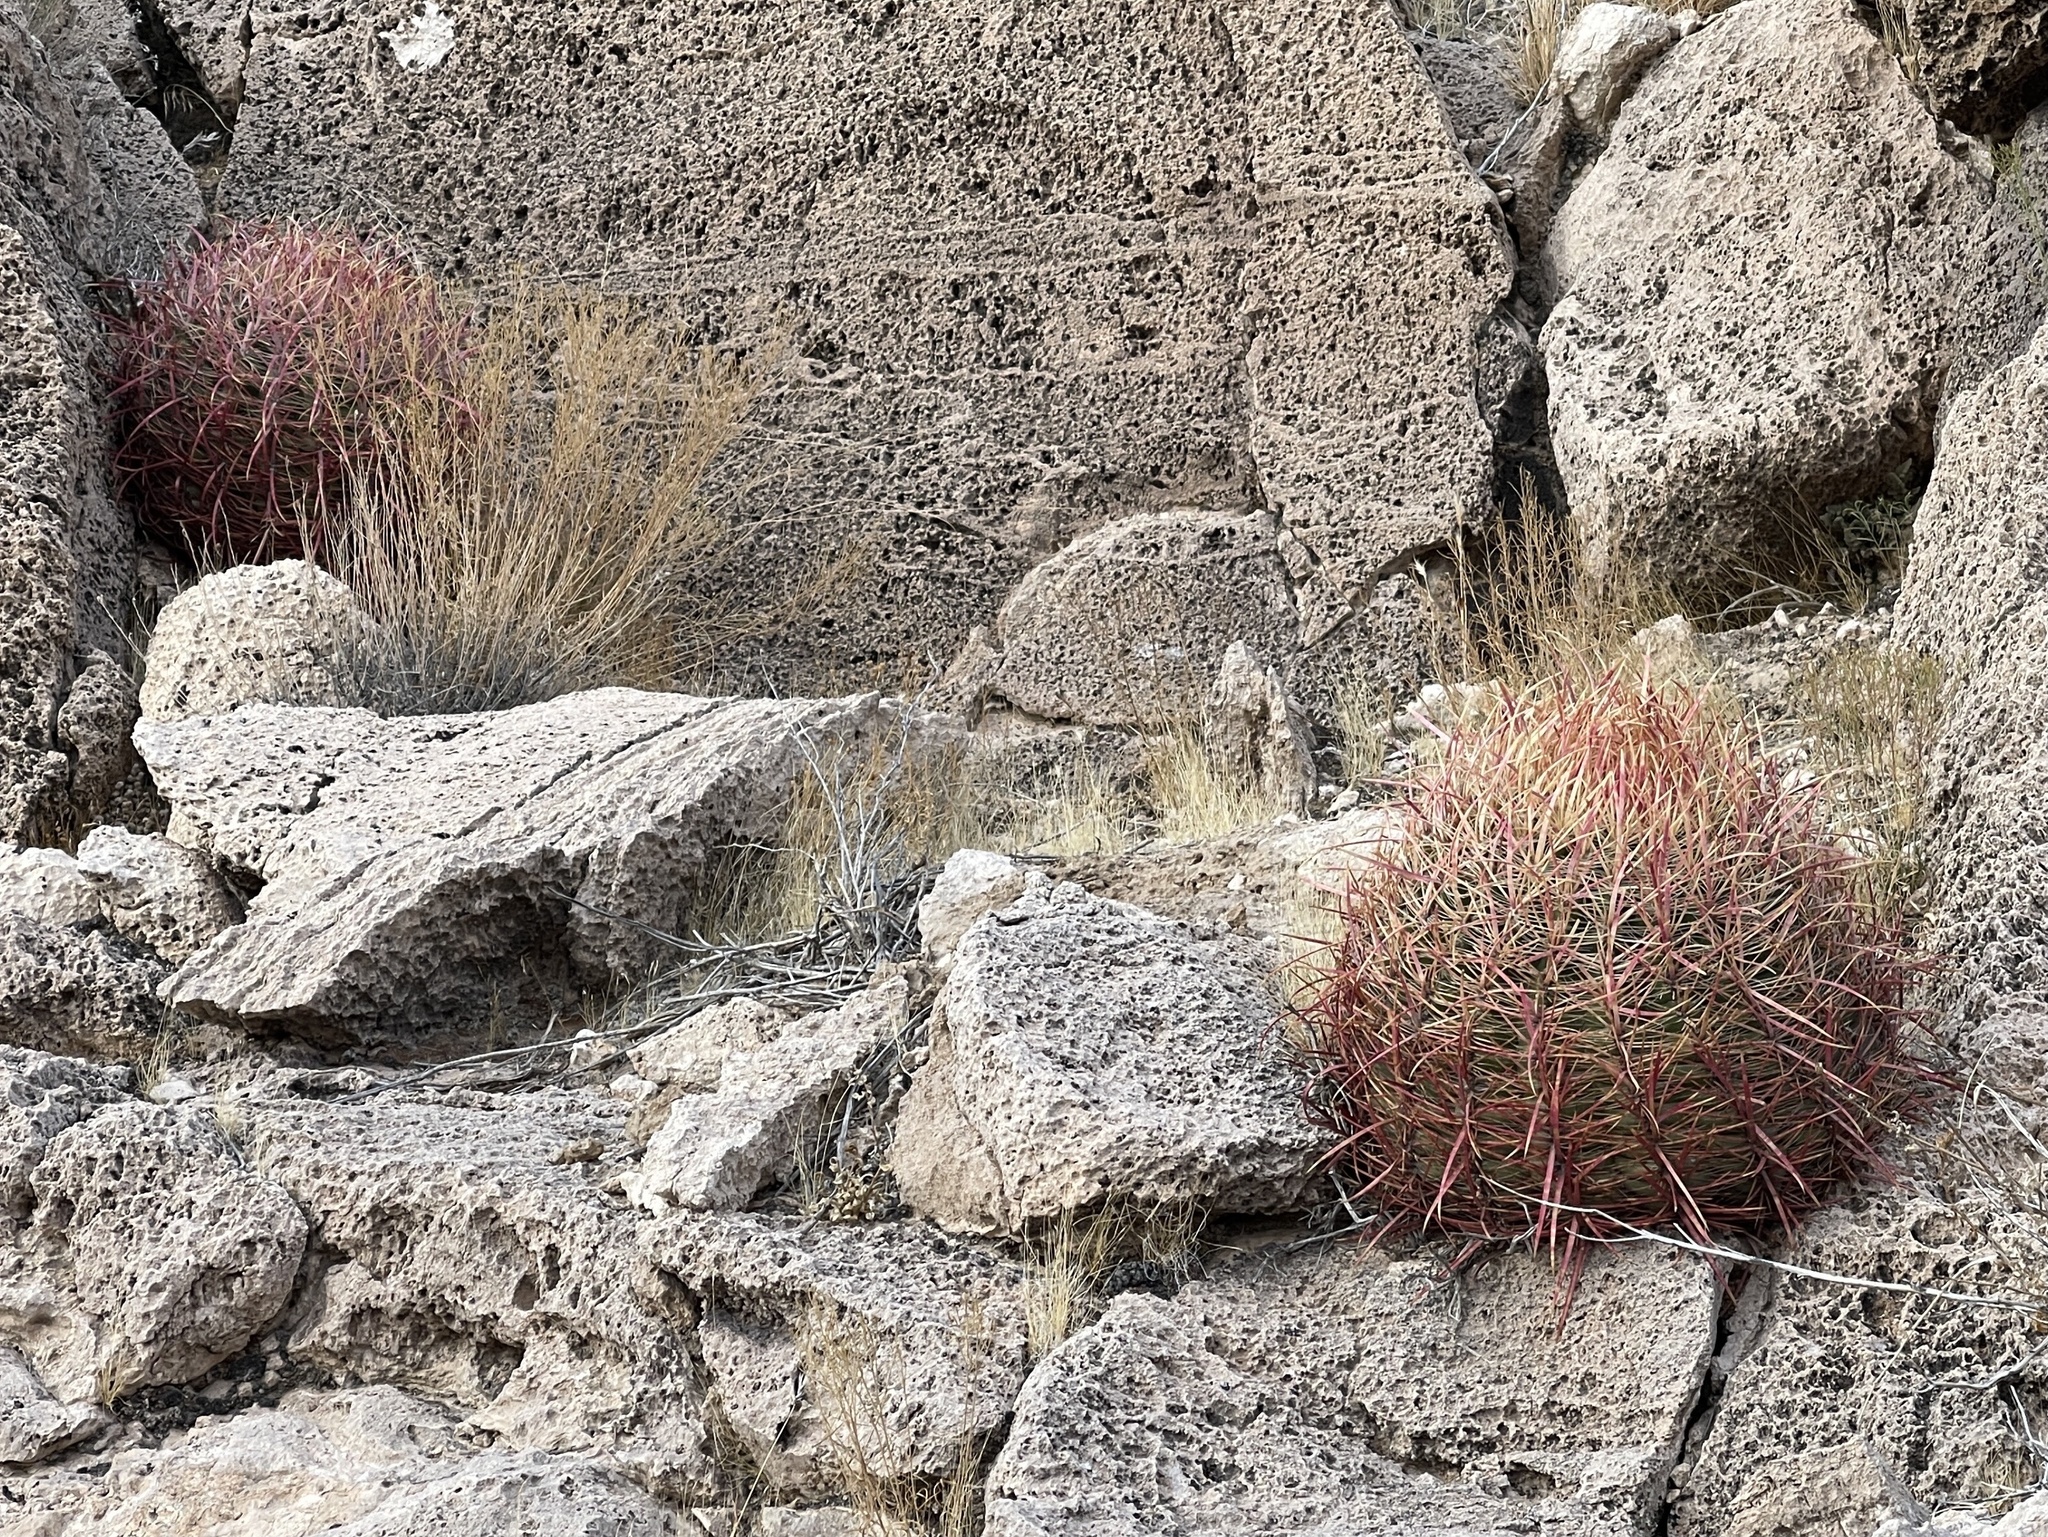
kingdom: Plantae
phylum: Tracheophyta
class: Magnoliopsida
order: Caryophyllales
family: Cactaceae
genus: Ferocactus
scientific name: Ferocactus cylindraceus
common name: California barrel cactus
